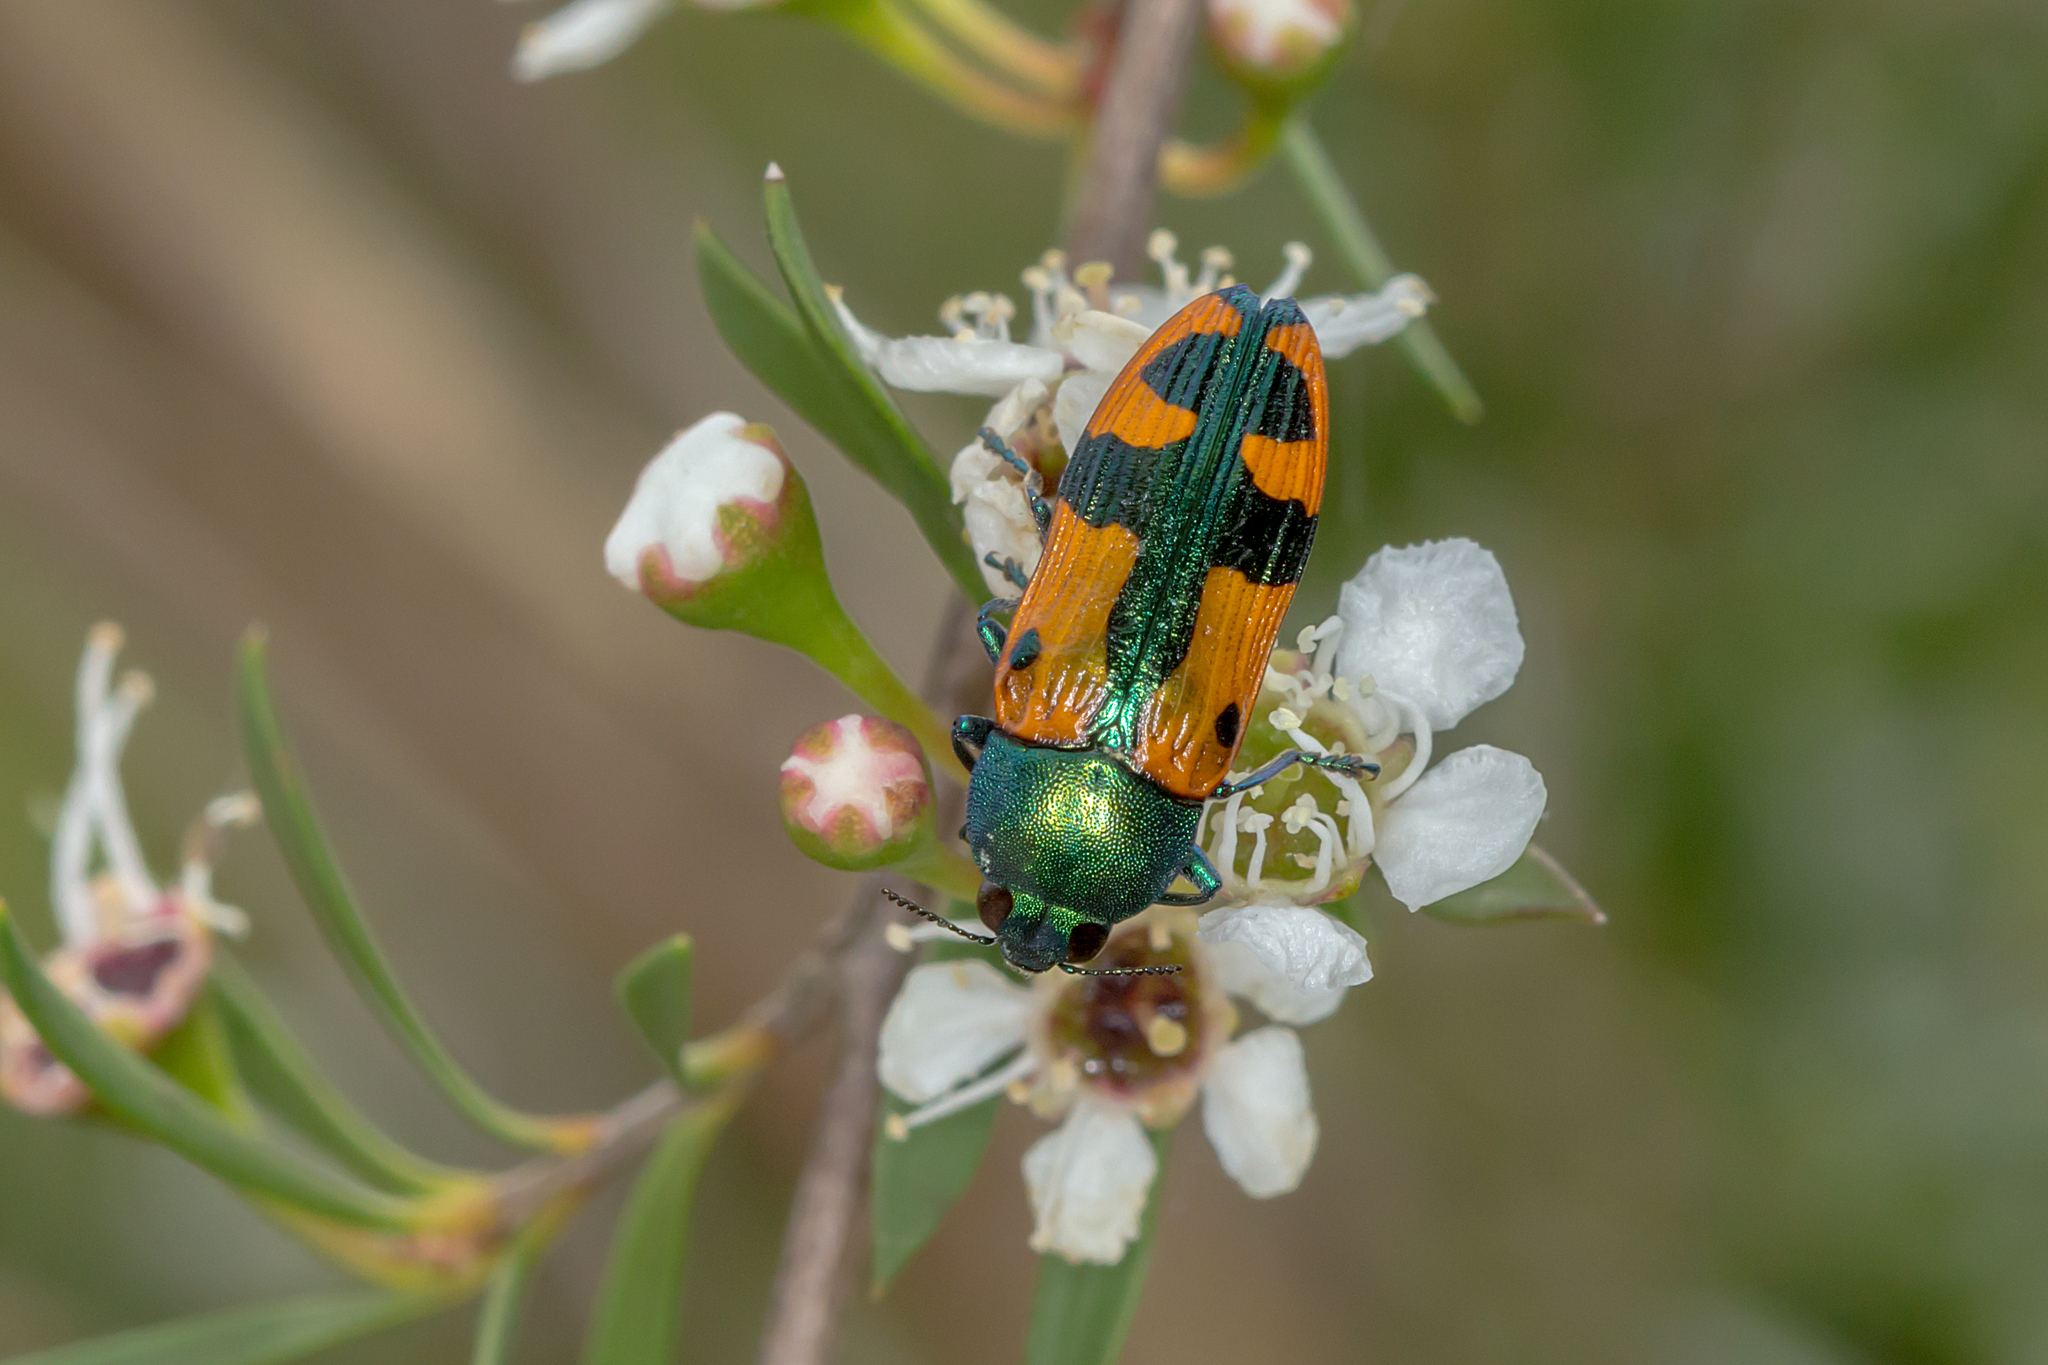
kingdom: Animalia
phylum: Arthropoda
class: Insecta
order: Coleoptera
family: Buprestidae
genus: Castiarina
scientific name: Castiarina scalaris
